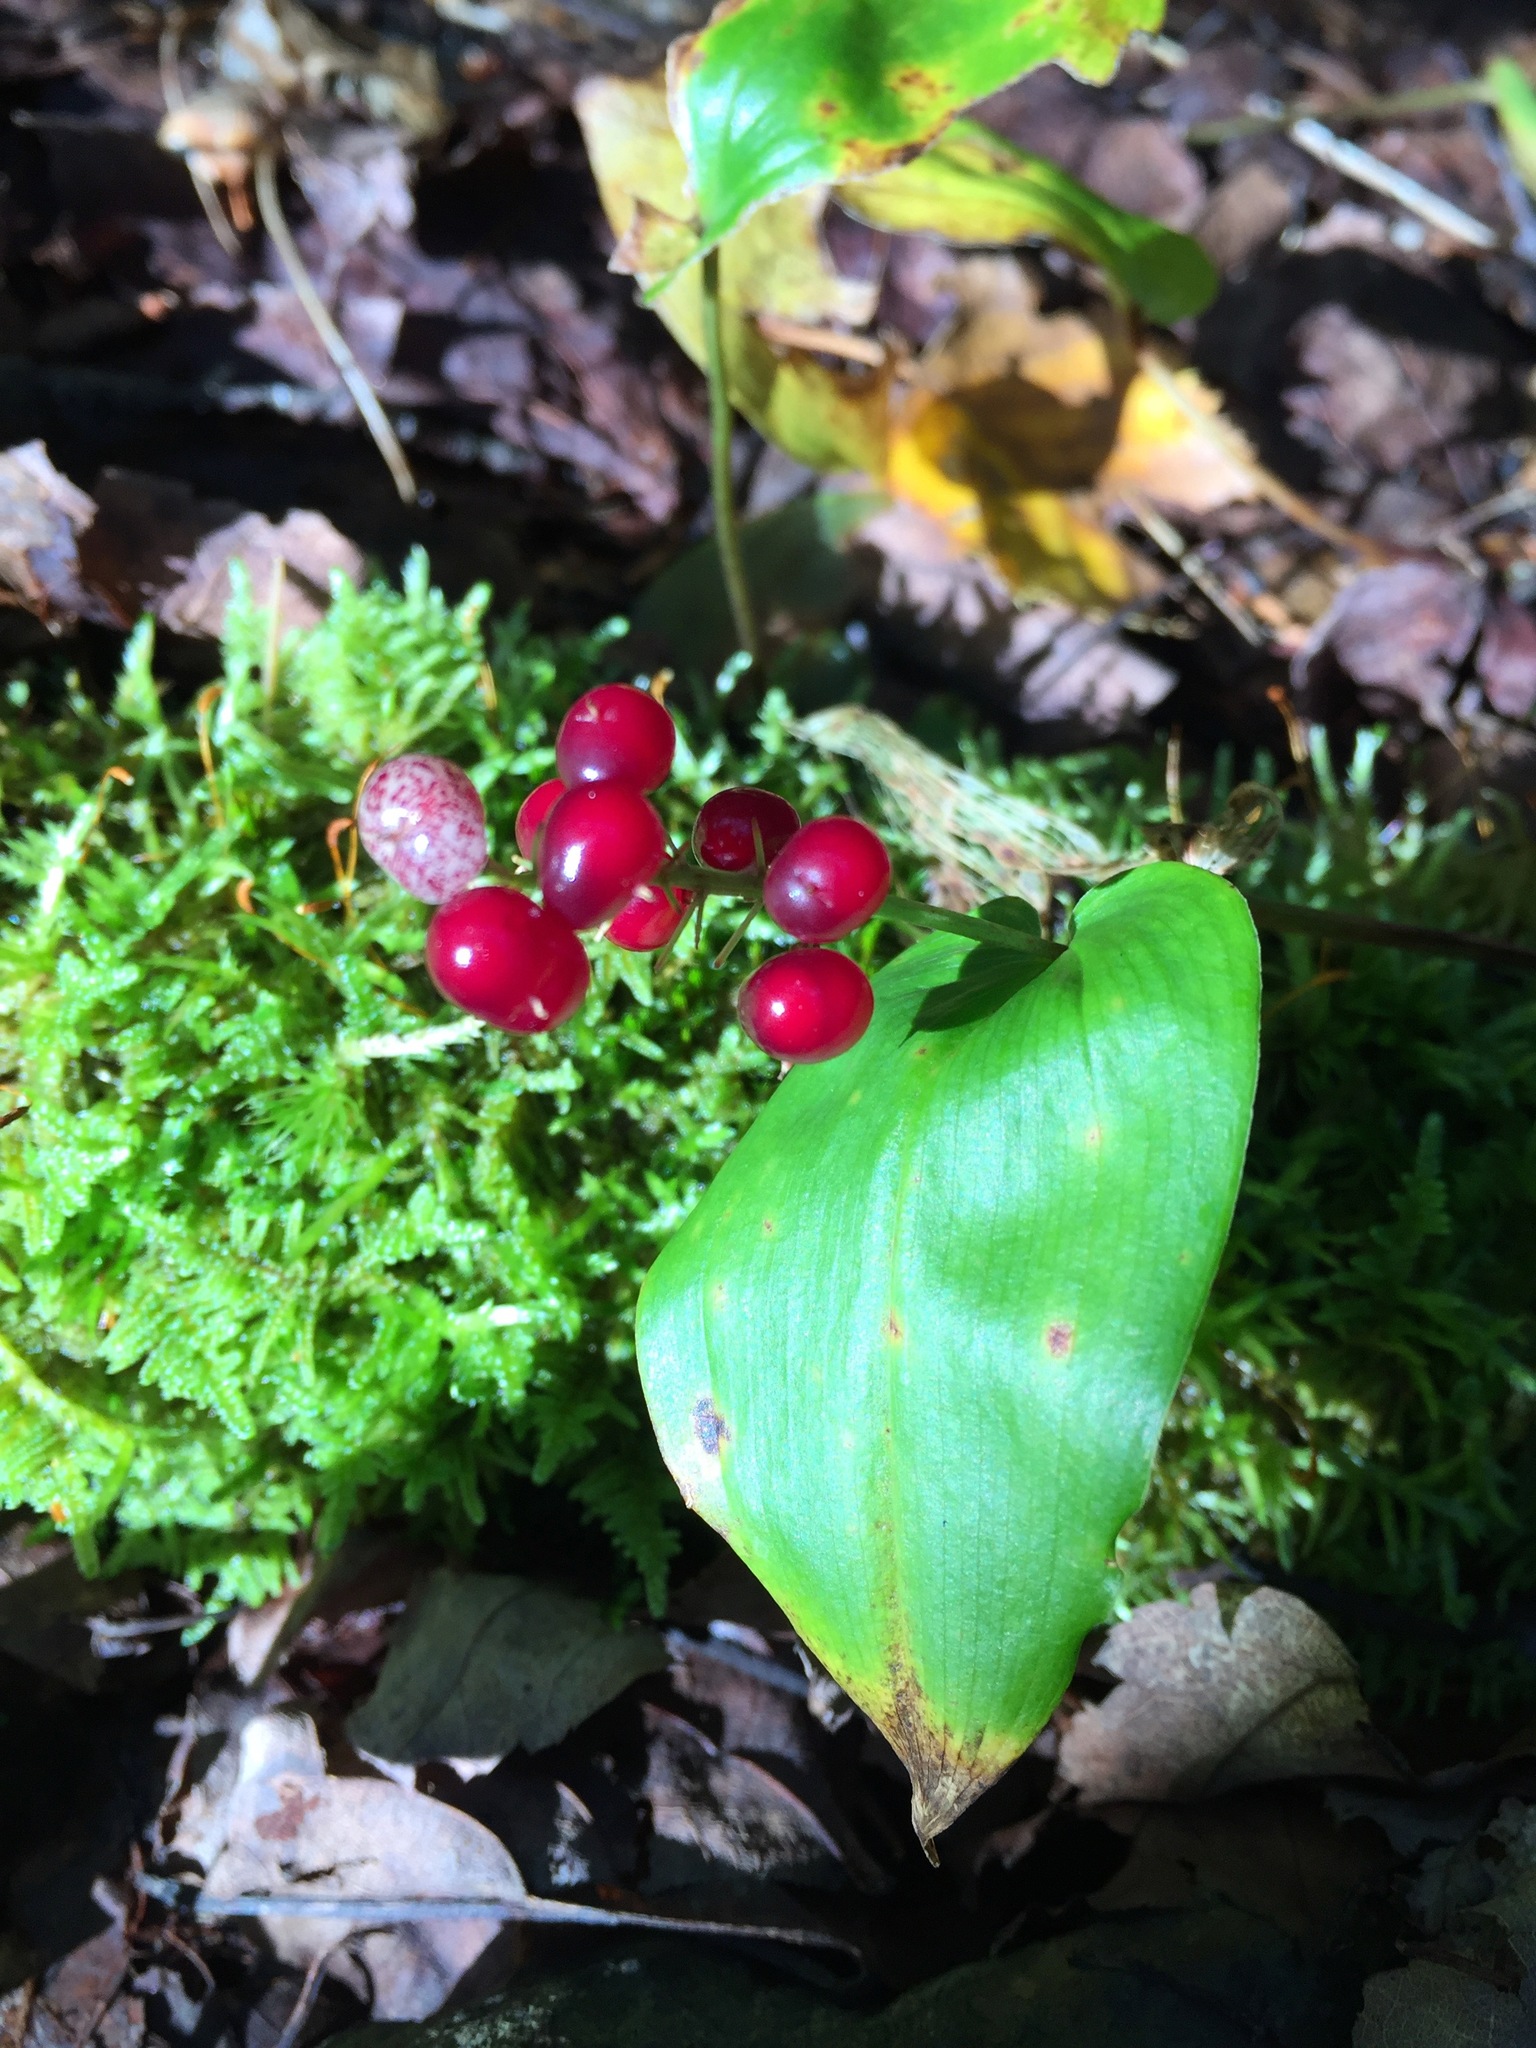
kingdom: Plantae
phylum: Tracheophyta
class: Liliopsida
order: Asparagales
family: Asparagaceae
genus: Maianthemum
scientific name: Maianthemum canadense
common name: False lily-of-the-valley
